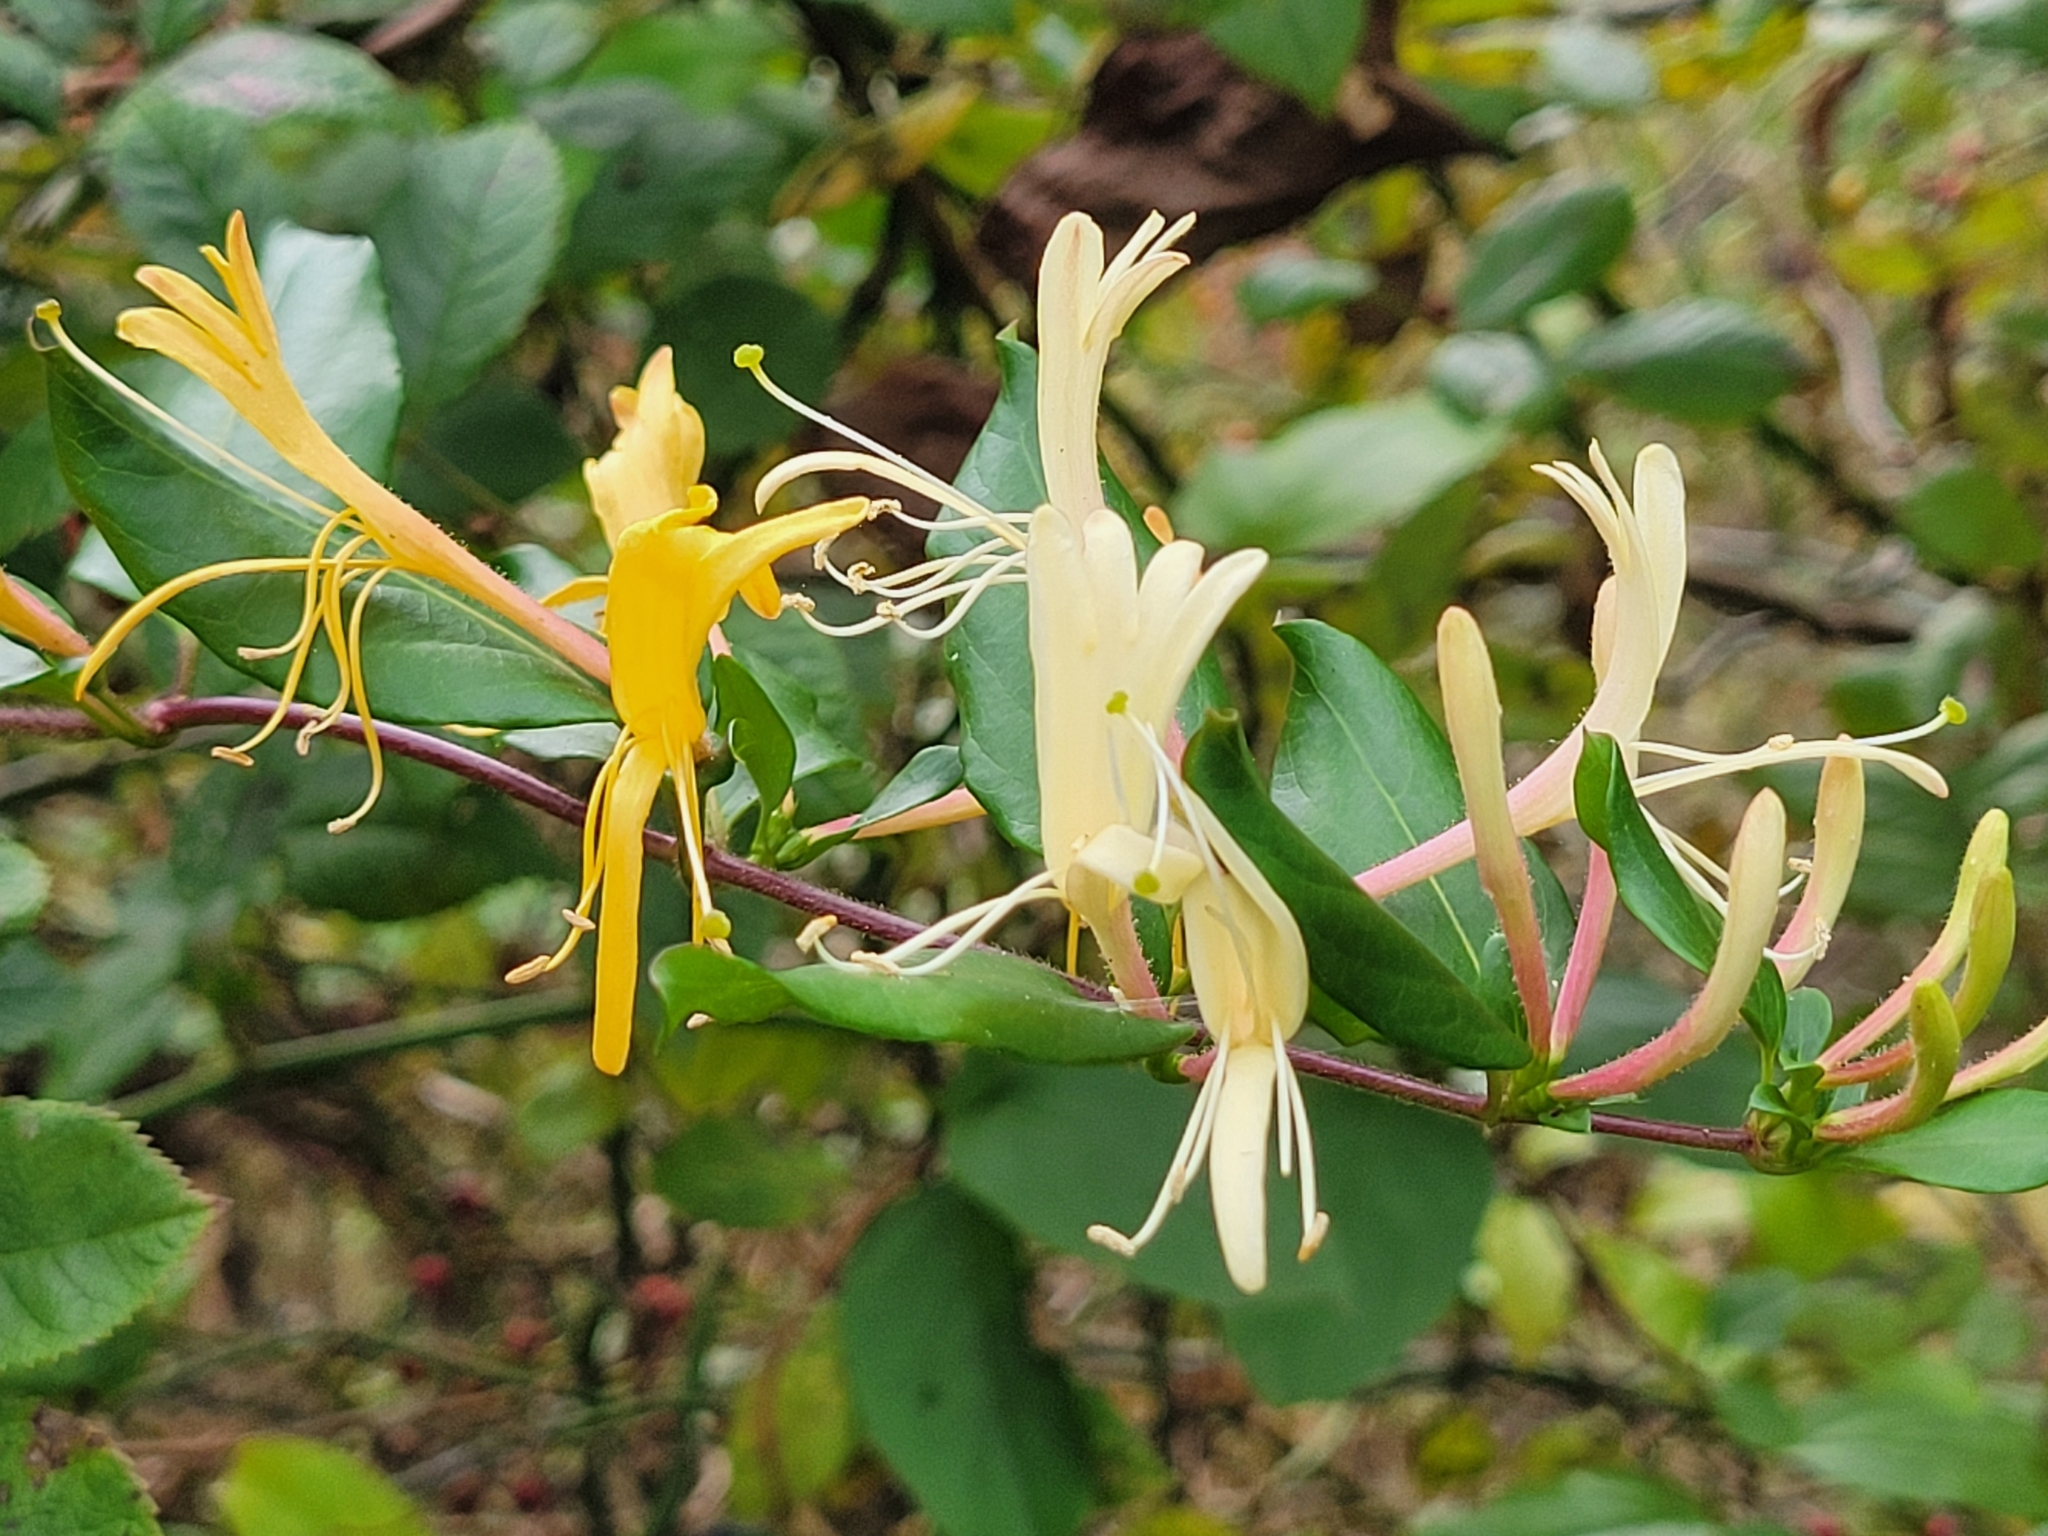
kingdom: Plantae
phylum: Tracheophyta
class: Magnoliopsida
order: Dipsacales
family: Caprifoliaceae
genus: Lonicera
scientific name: Lonicera japonica
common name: Japanese honeysuckle
